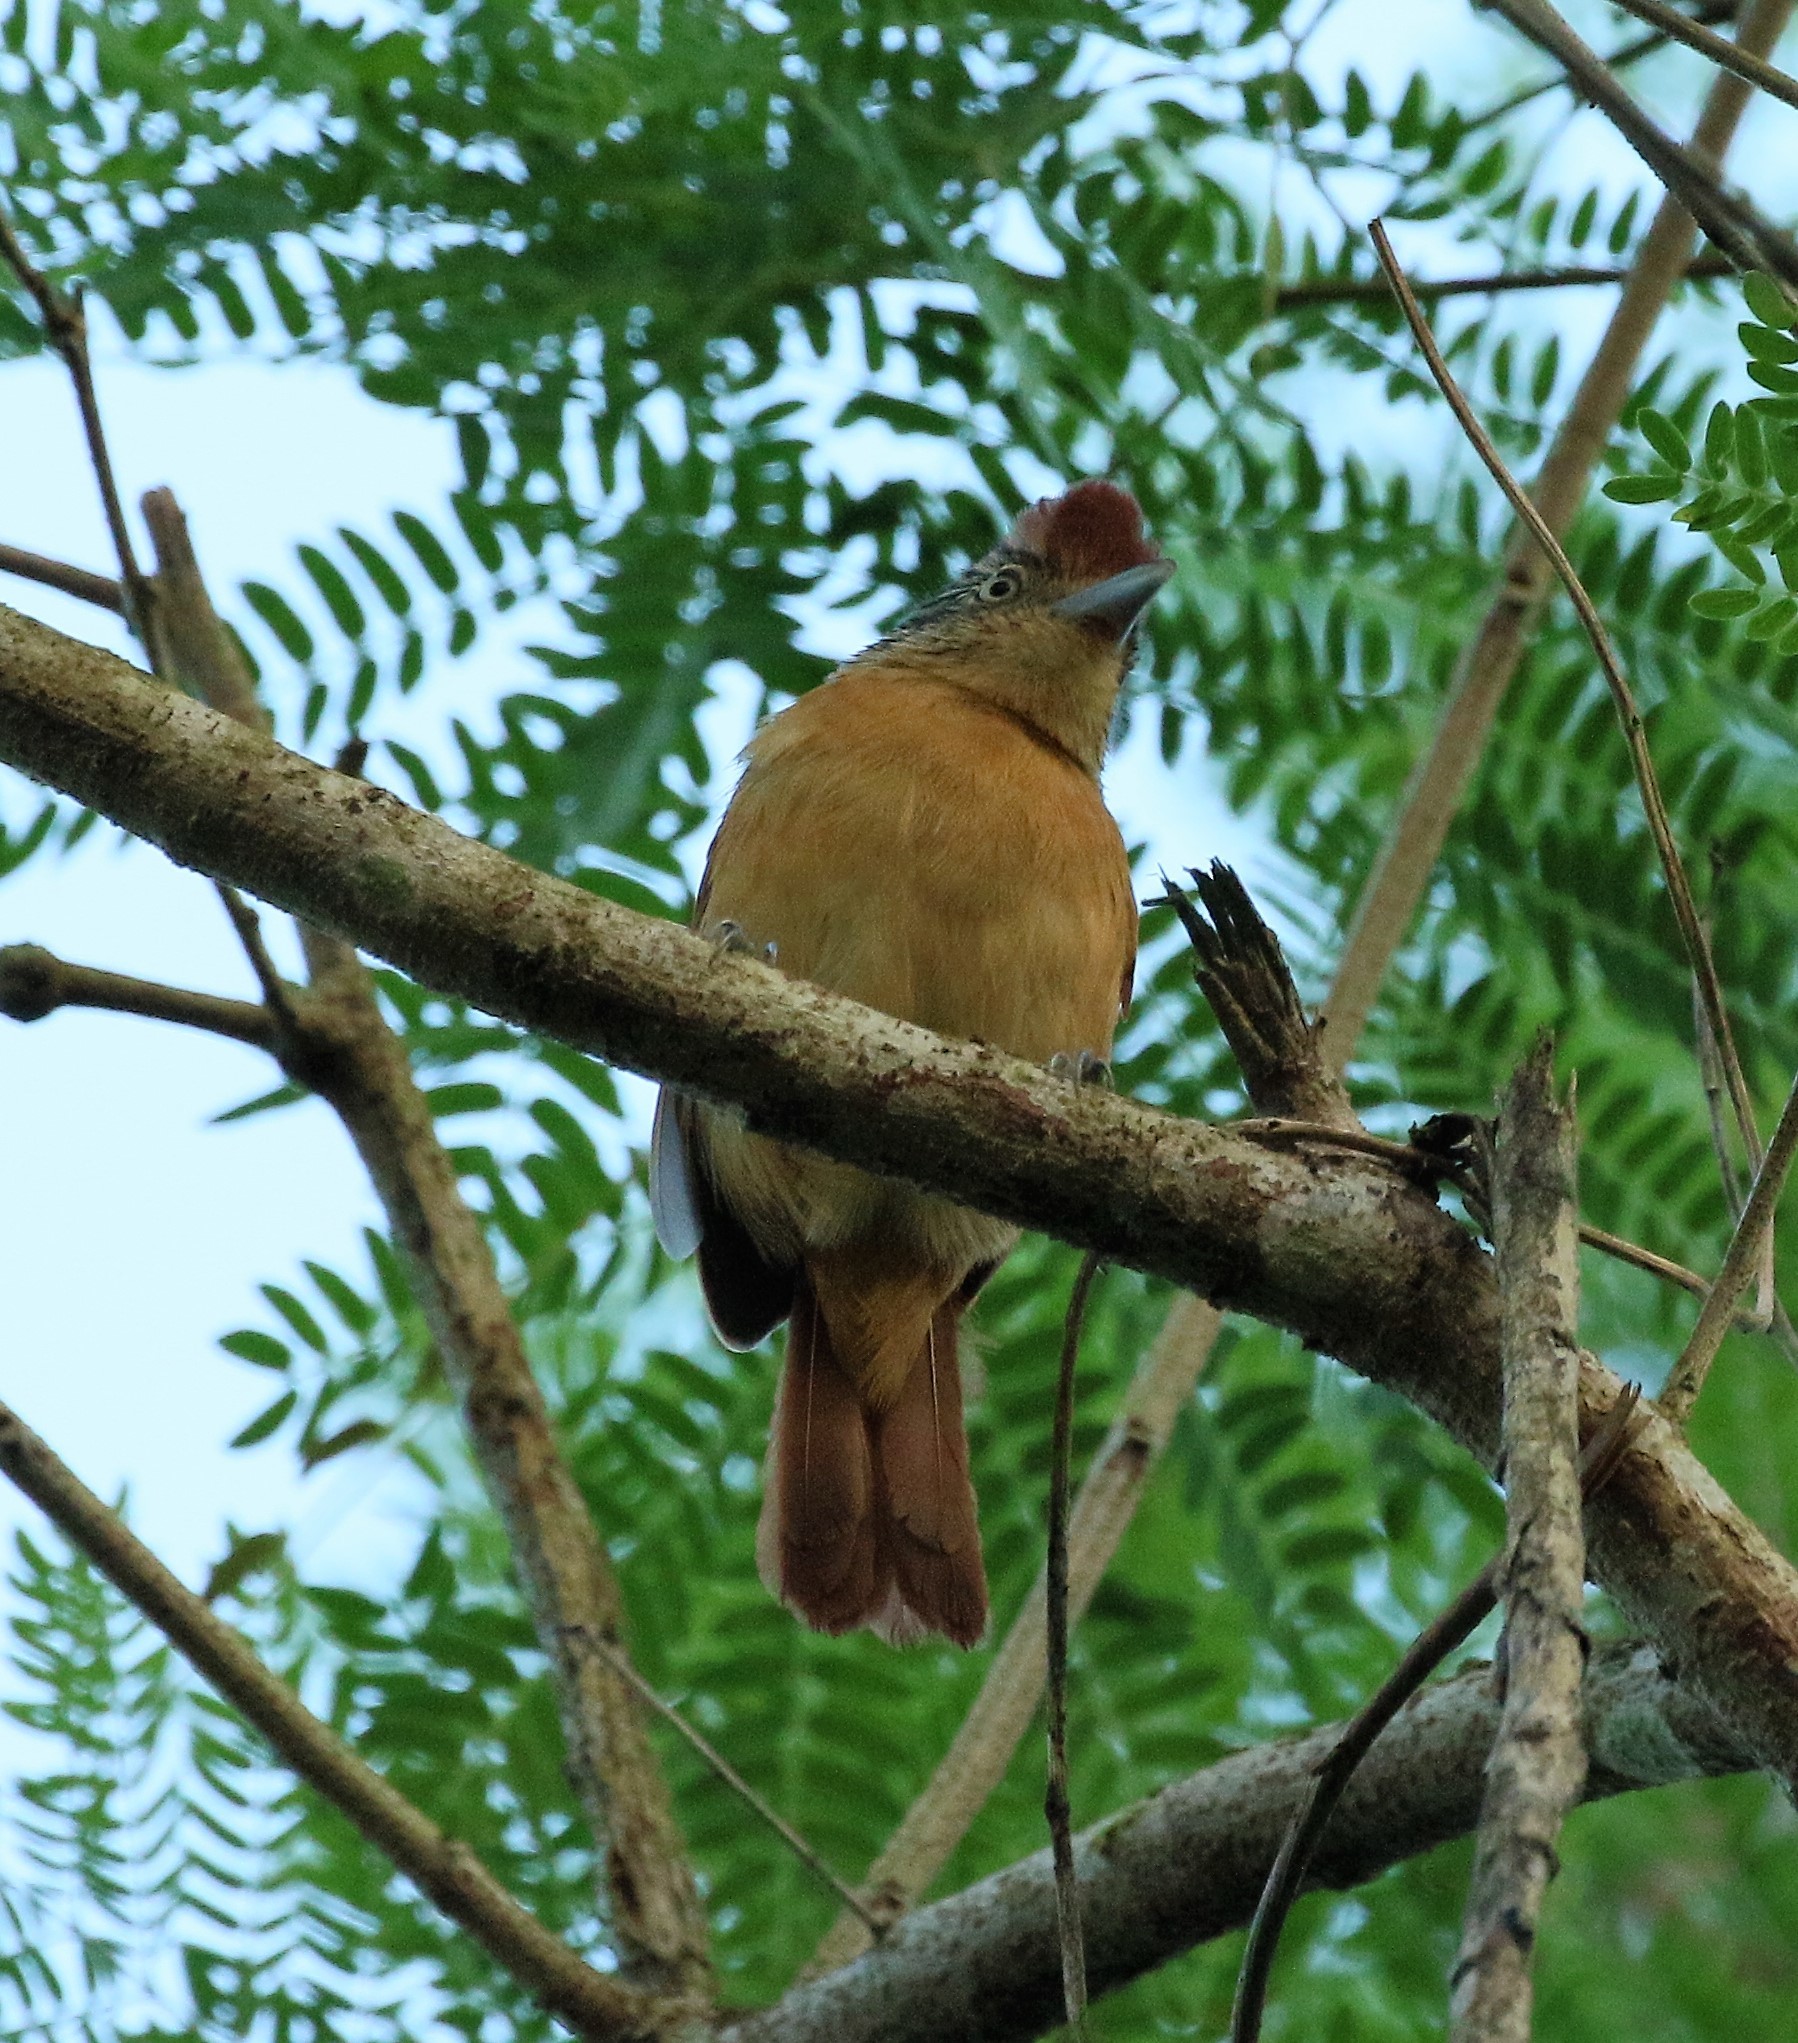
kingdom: Animalia
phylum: Chordata
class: Aves
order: Passeriformes
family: Thamnophilidae
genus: Thamnophilus
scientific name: Thamnophilus doliatus
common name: Barred antshrike
